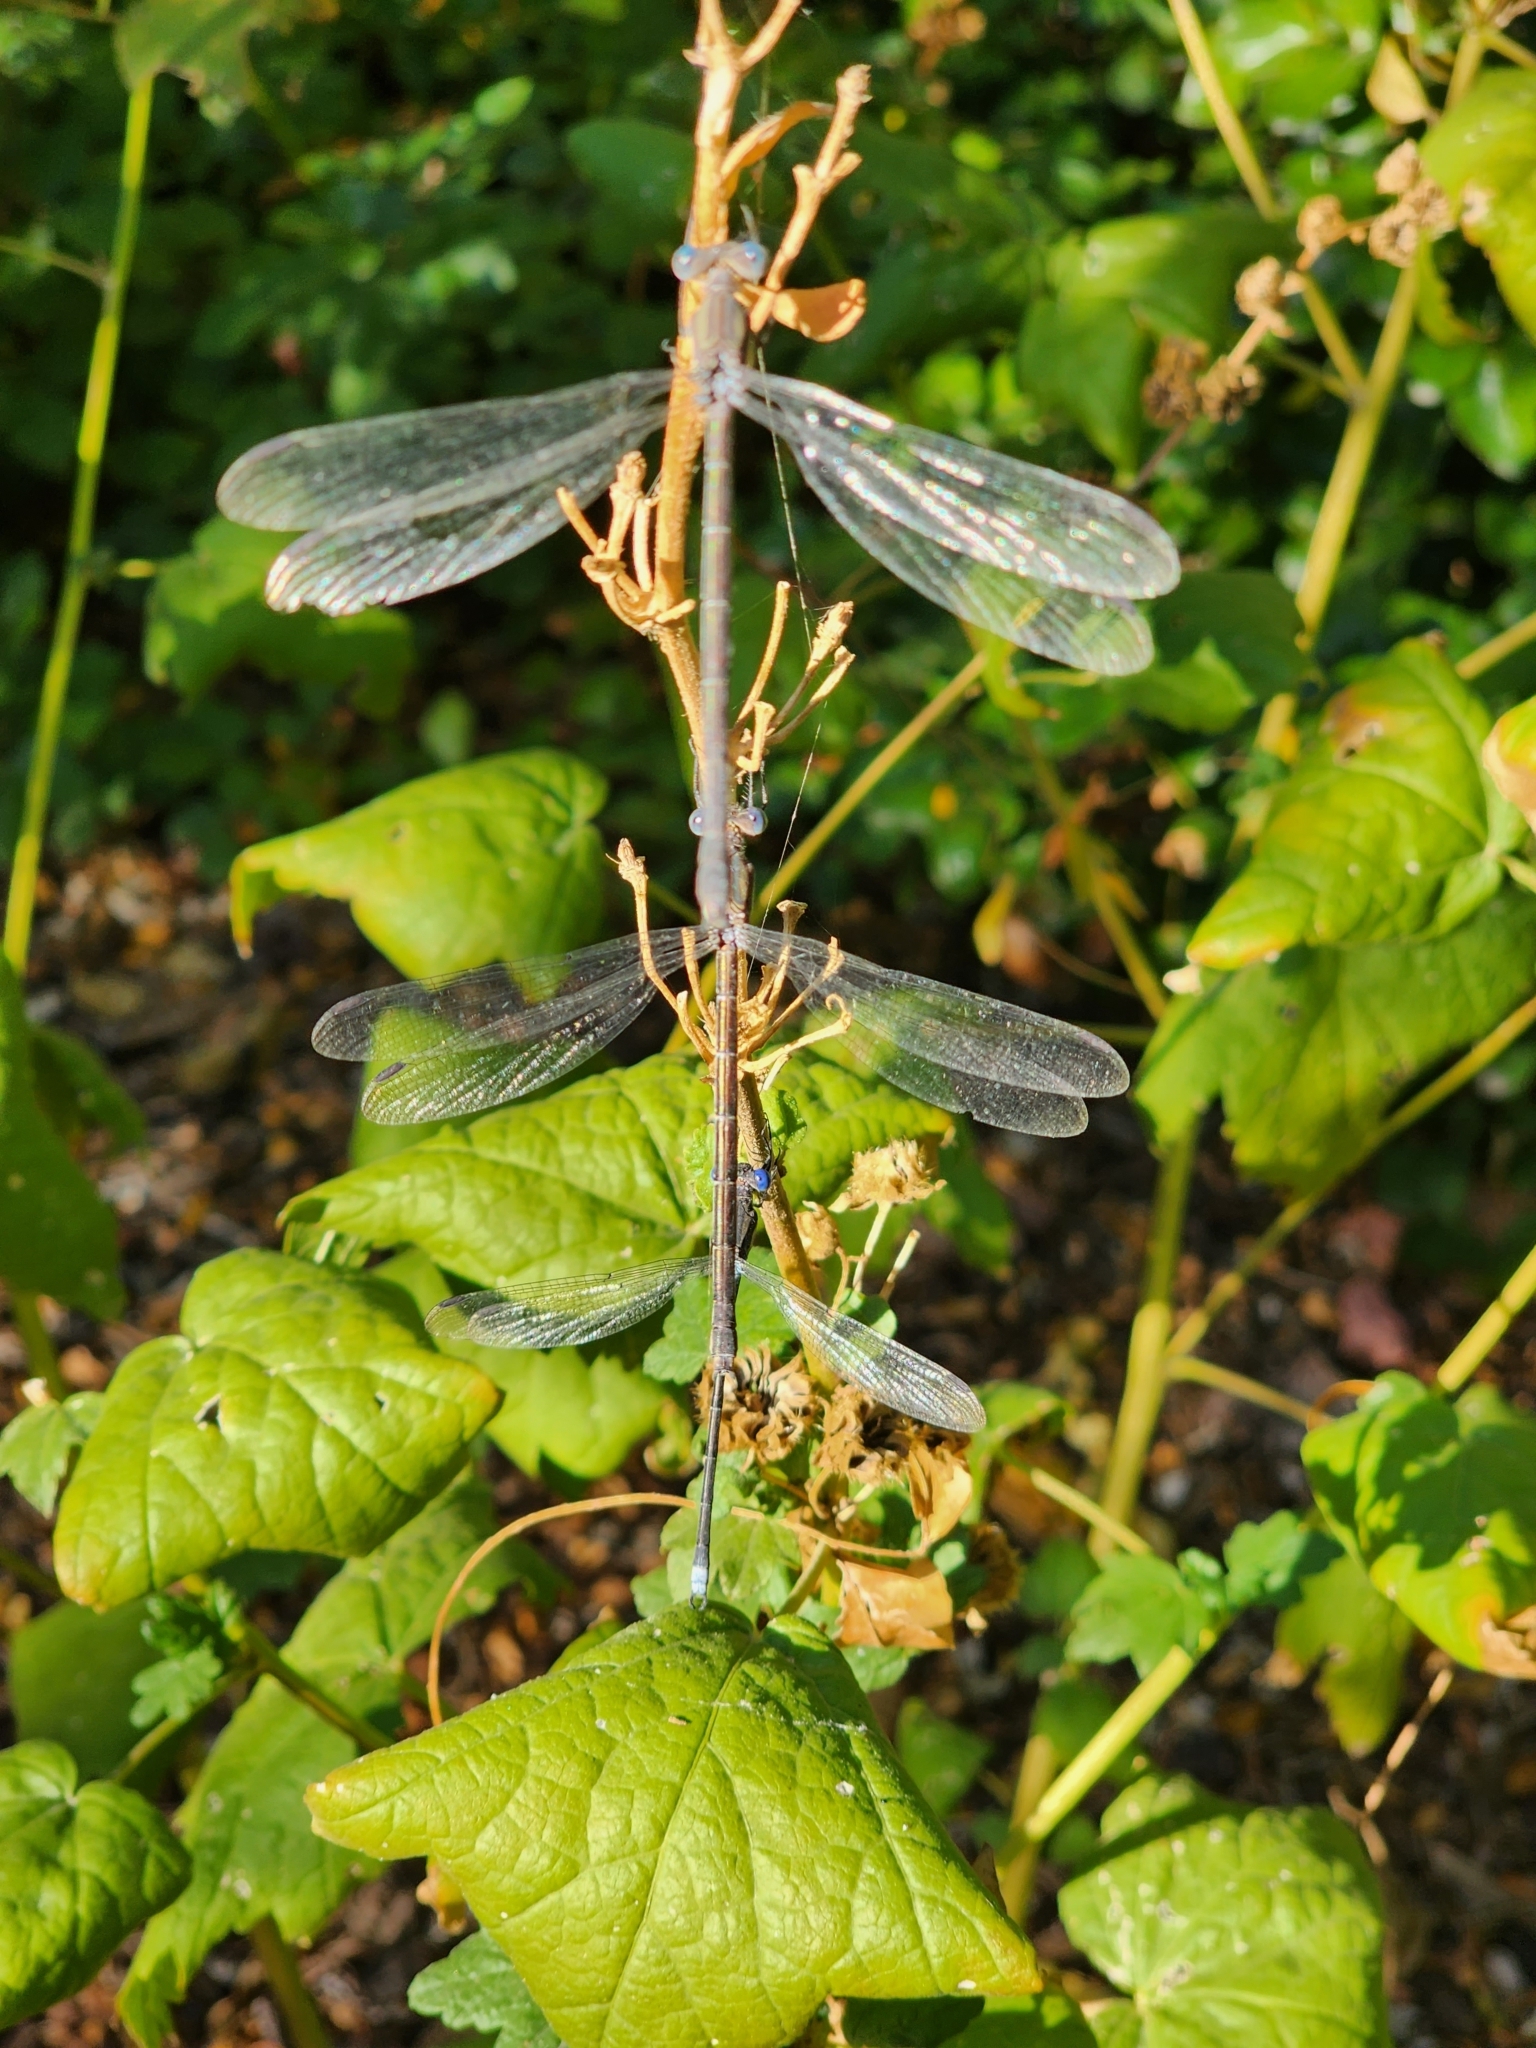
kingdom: Animalia
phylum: Arthropoda
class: Insecta
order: Odonata
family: Lestidae
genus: Archilestes
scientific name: Archilestes grandis
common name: Great spreadwing
